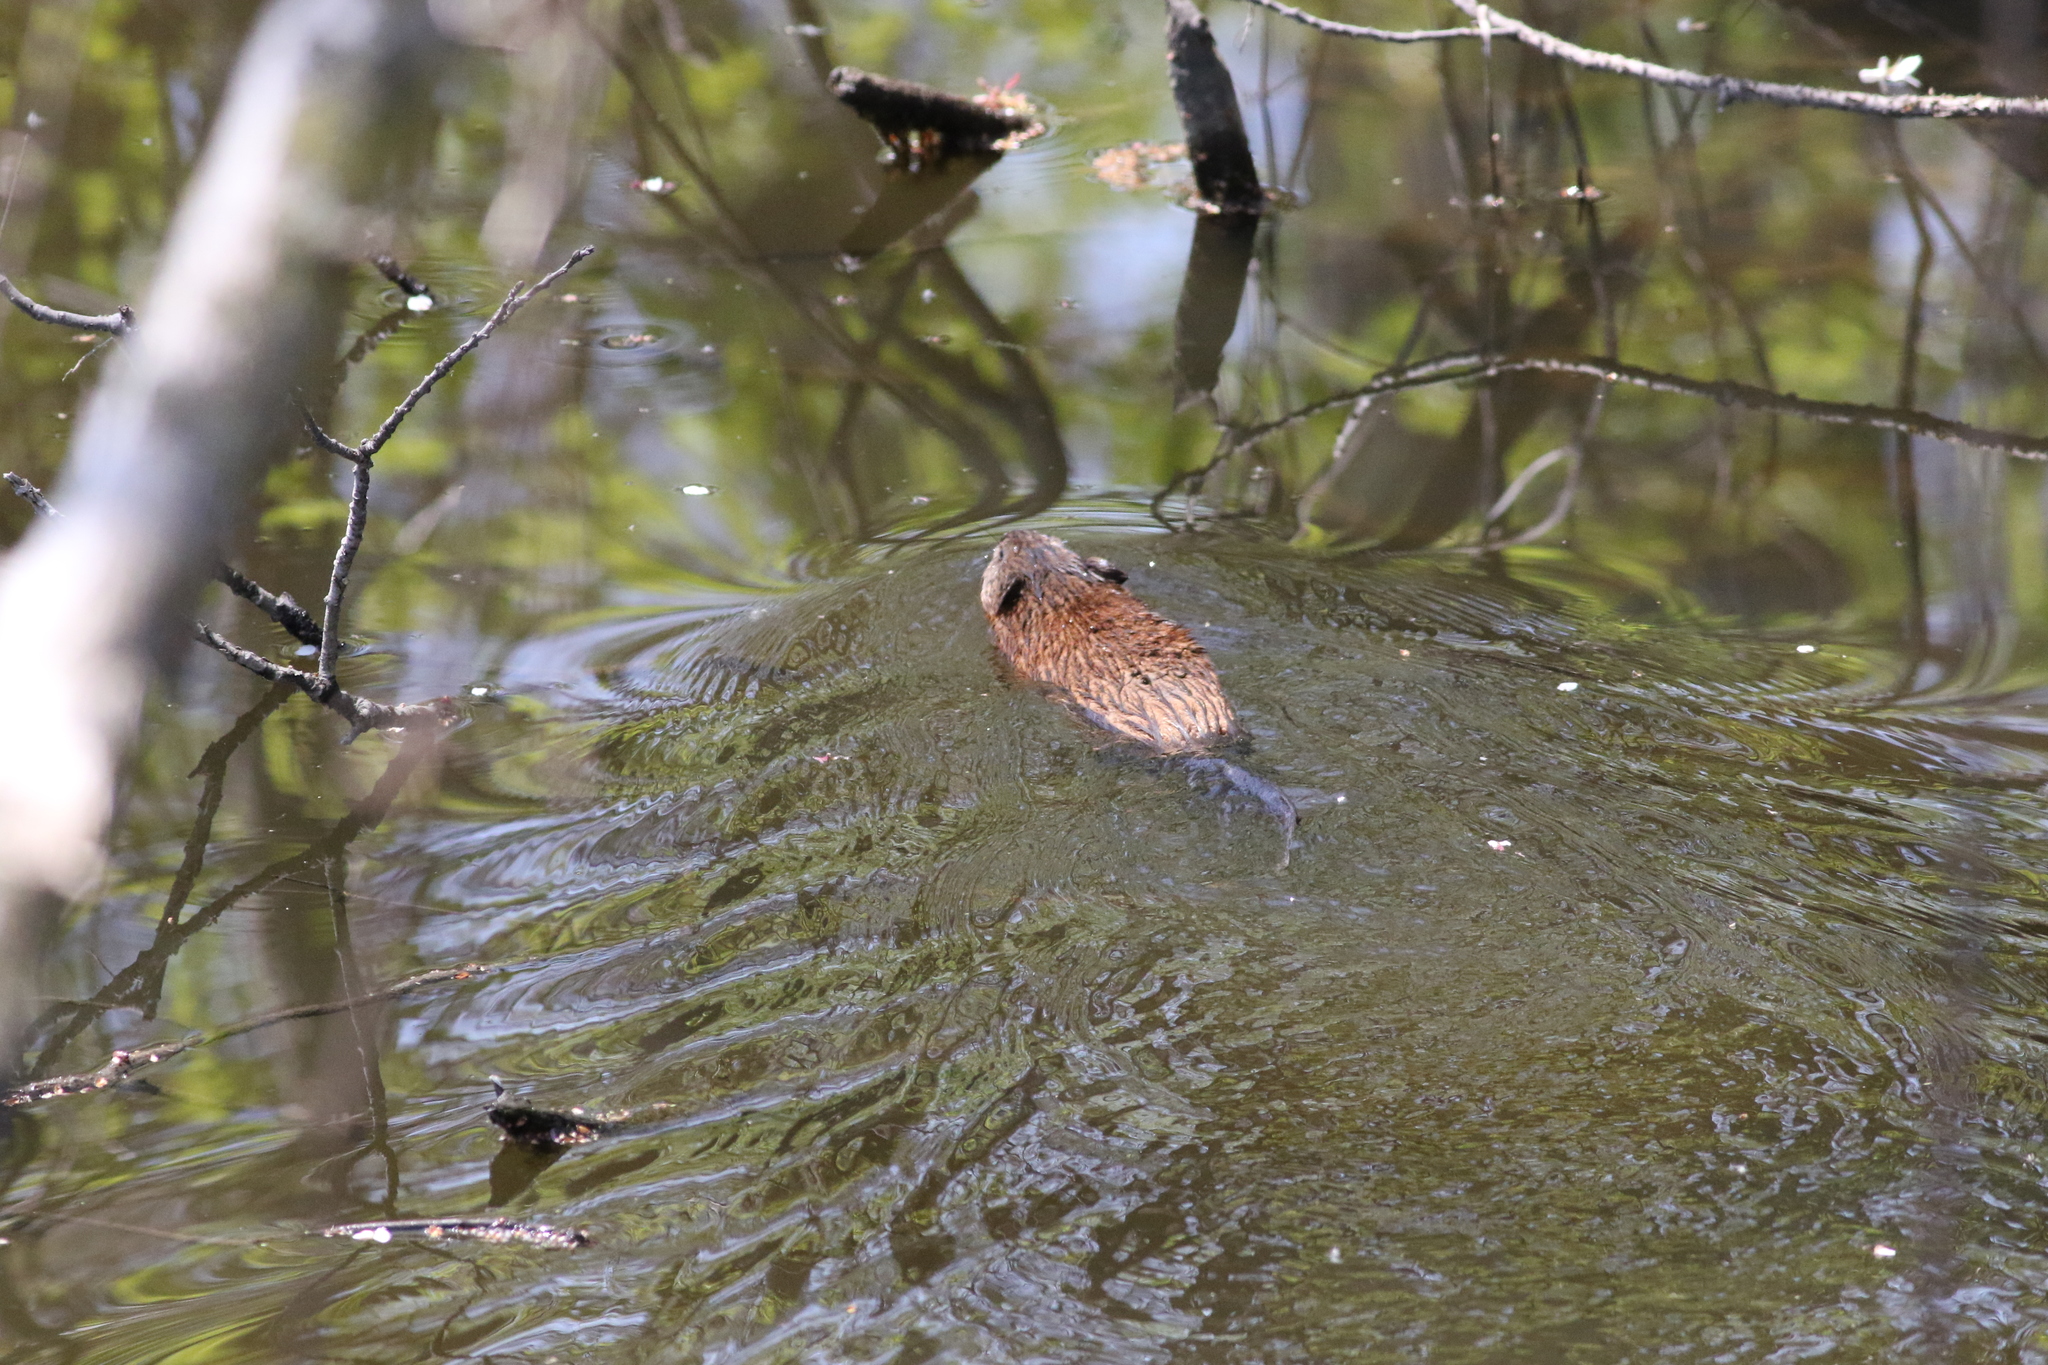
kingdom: Animalia
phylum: Chordata
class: Mammalia
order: Rodentia
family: Cricetidae
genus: Ondatra
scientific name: Ondatra zibethicus
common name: Muskrat
